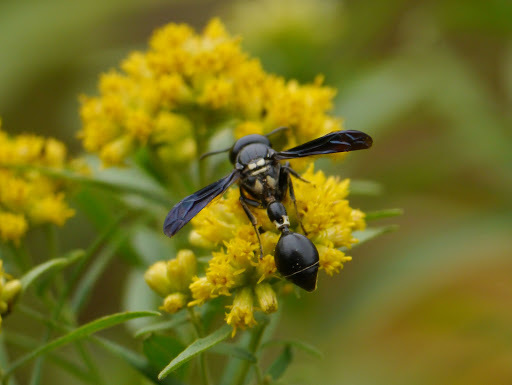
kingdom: Animalia
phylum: Arthropoda
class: Insecta
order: Hymenoptera
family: Eumenidae
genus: Zethus
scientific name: Zethus spinipes
